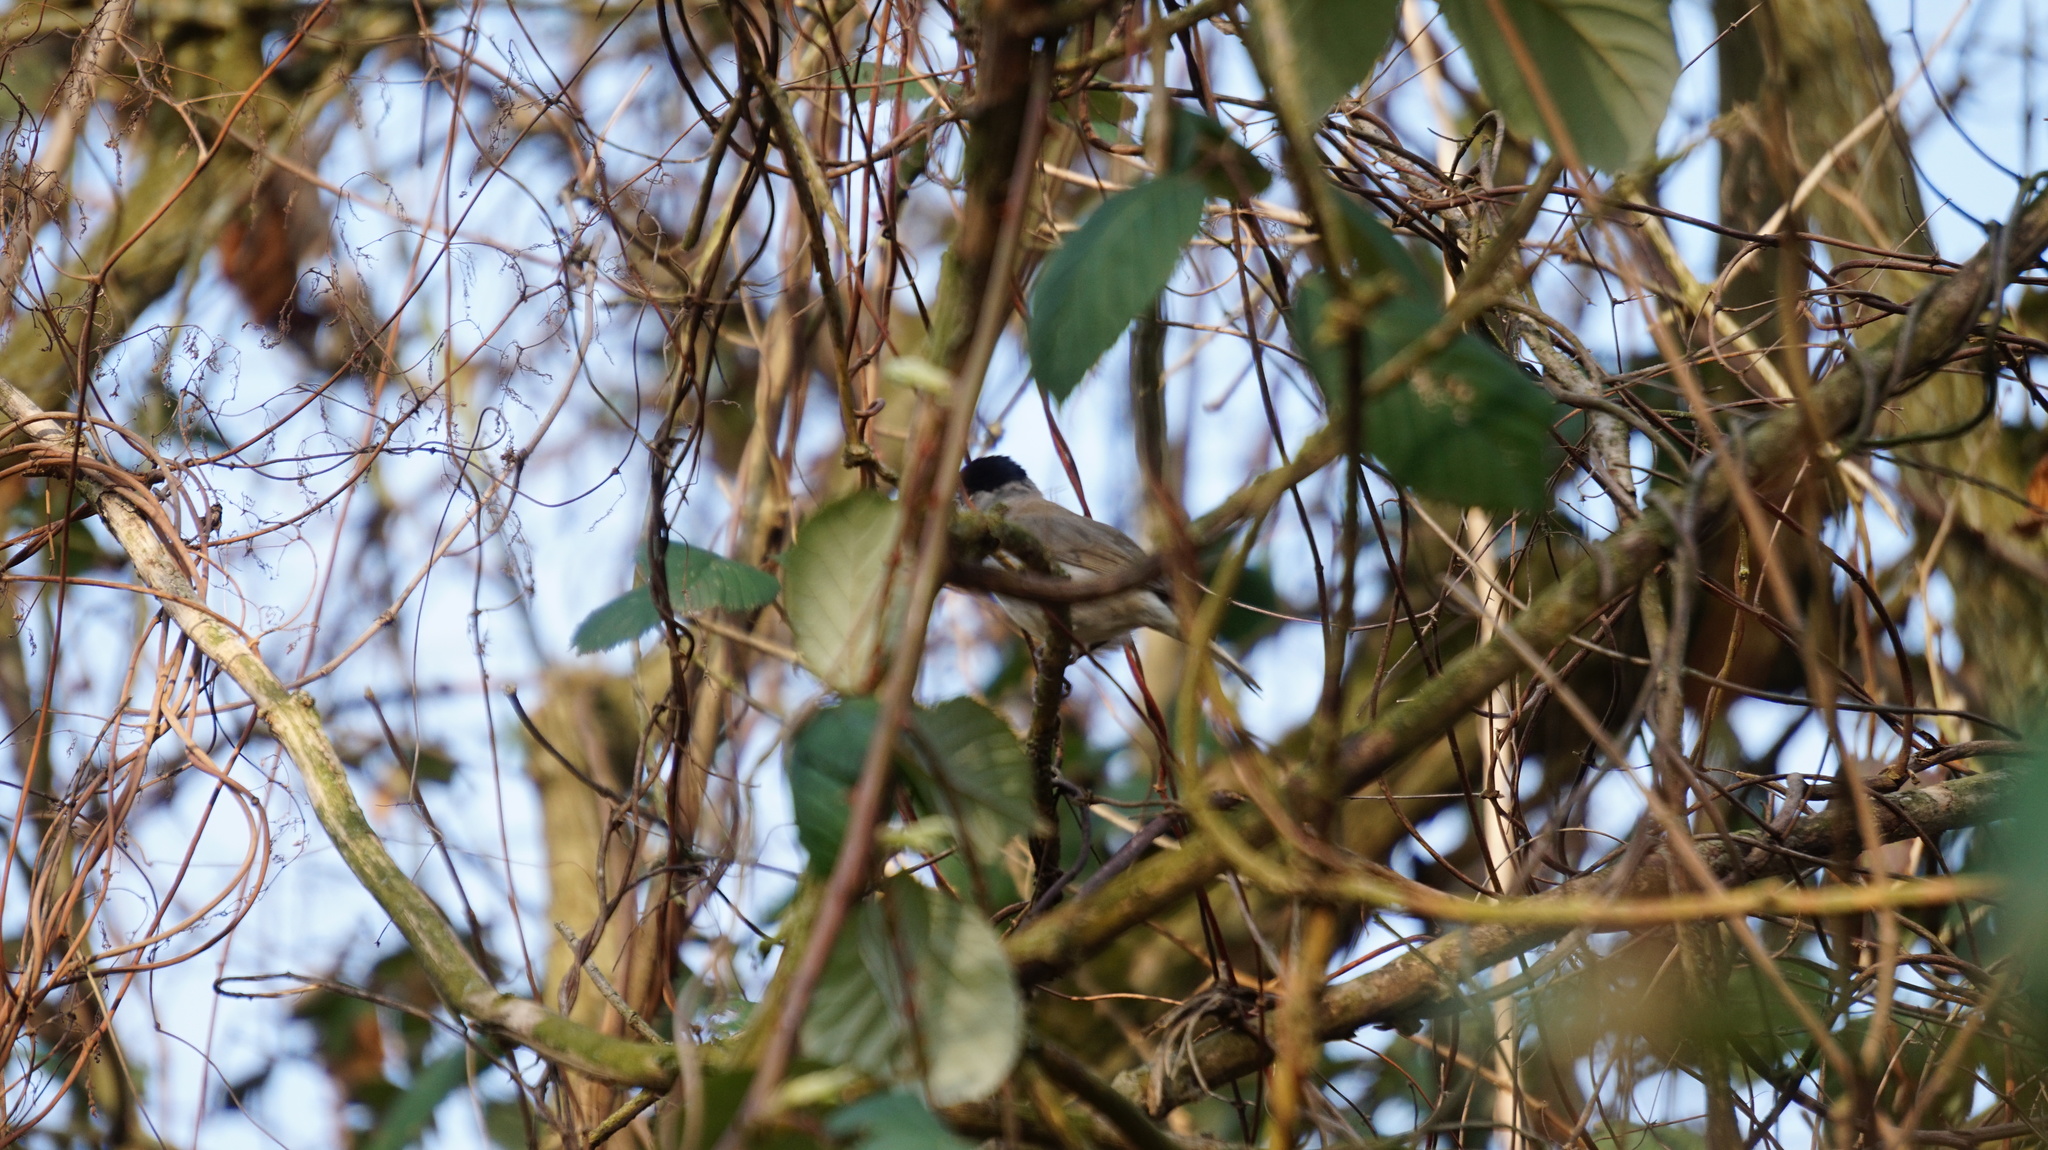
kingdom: Animalia
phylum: Chordata
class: Aves
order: Passeriformes
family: Sylviidae
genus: Sylvia
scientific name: Sylvia atricapilla
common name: Eurasian blackcap
